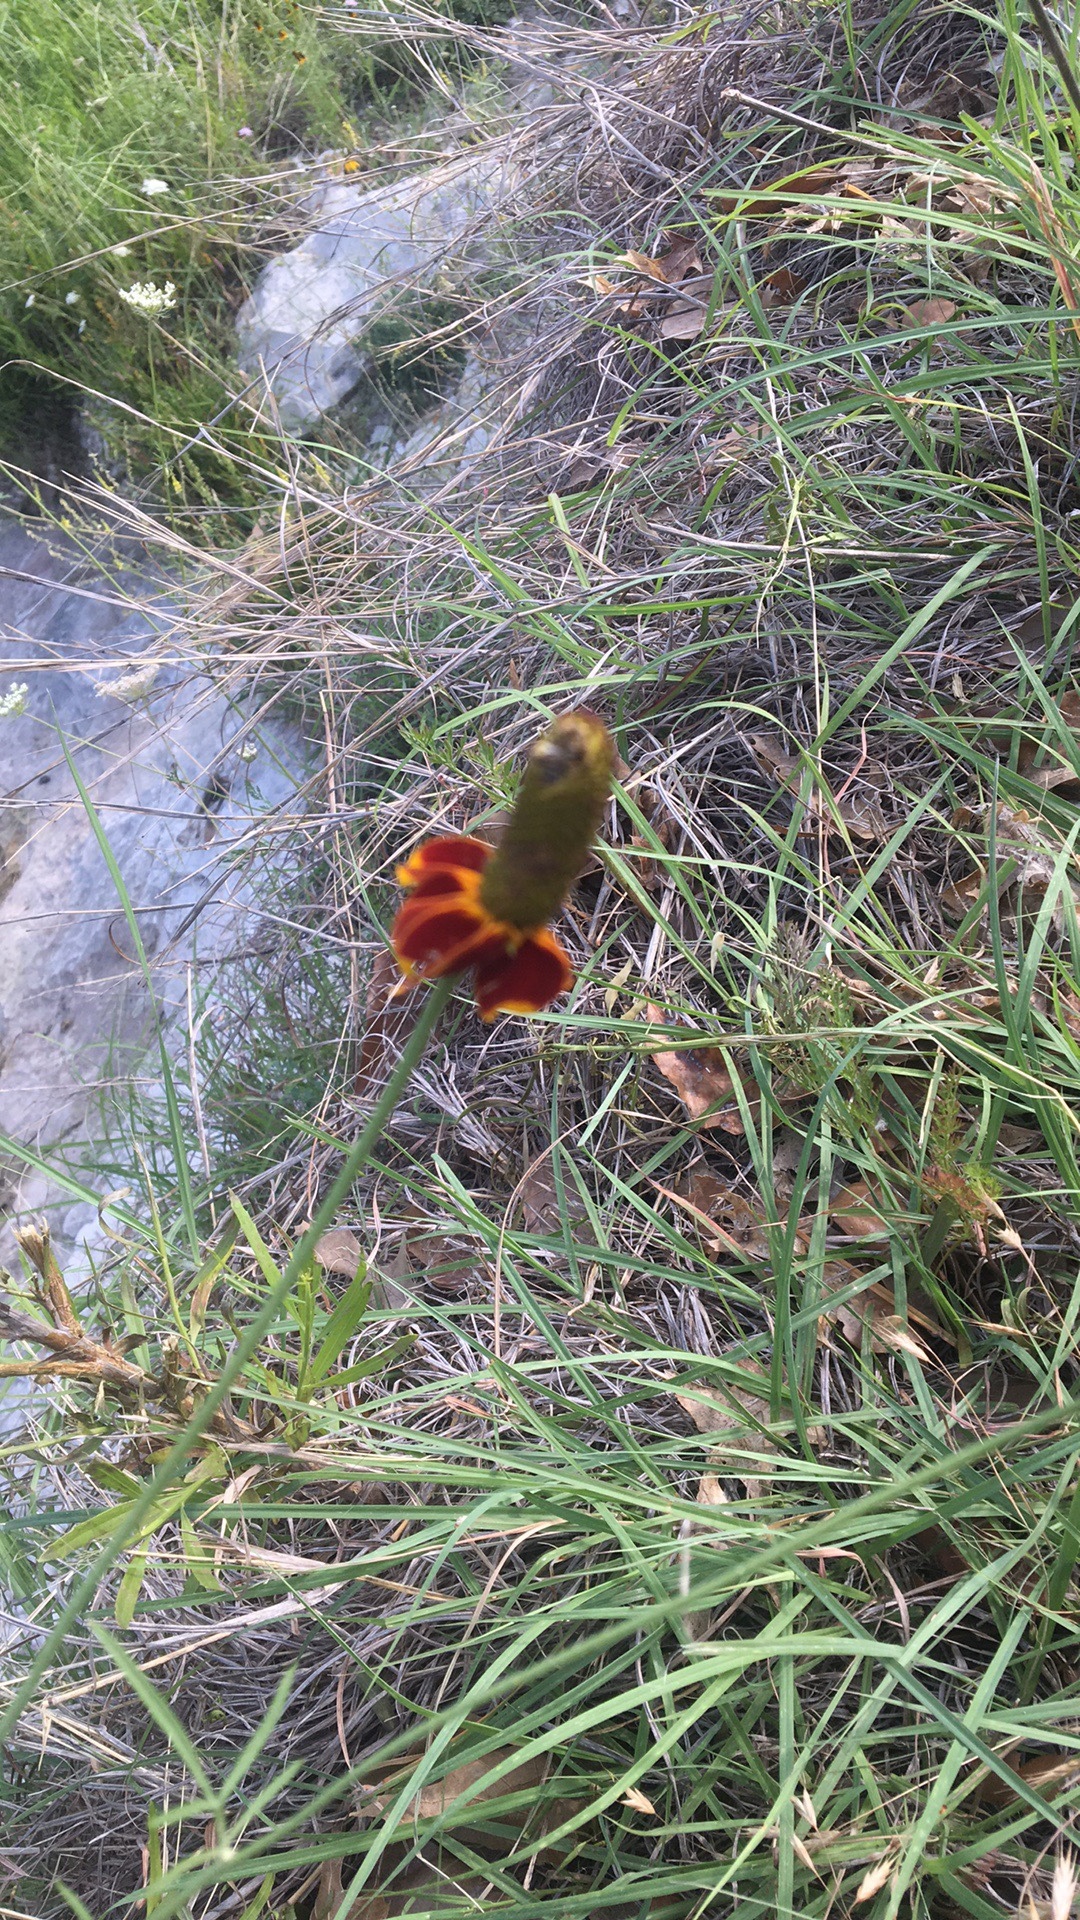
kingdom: Plantae
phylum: Tracheophyta
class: Magnoliopsida
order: Asterales
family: Asteraceae
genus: Ratibida
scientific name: Ratibida columnifera
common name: Prairie coneflower
